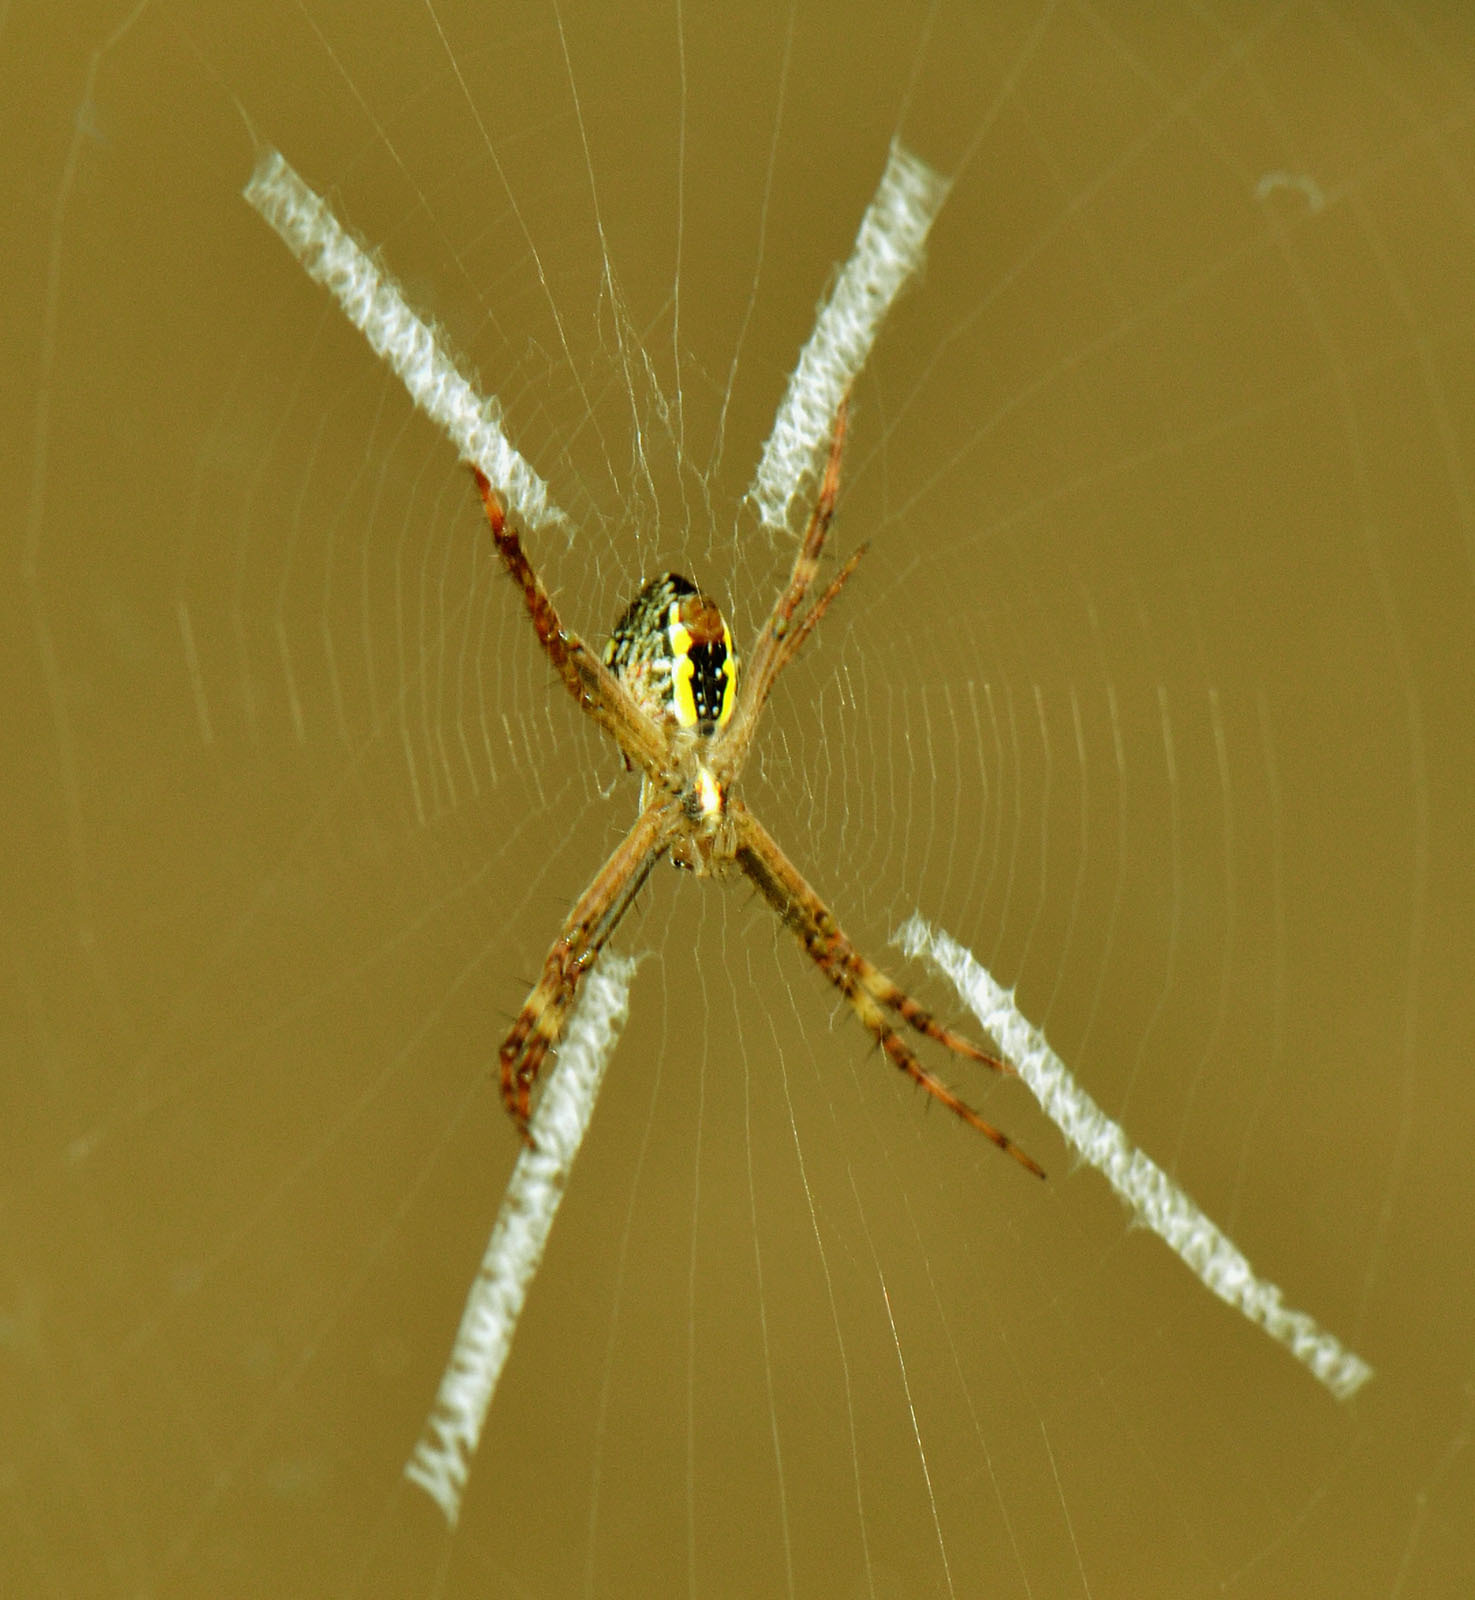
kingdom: Animalia
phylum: Arthropoda
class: Arachnida
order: Araneae
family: Araneidae
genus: Argiope
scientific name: Argiope keyserlingi
